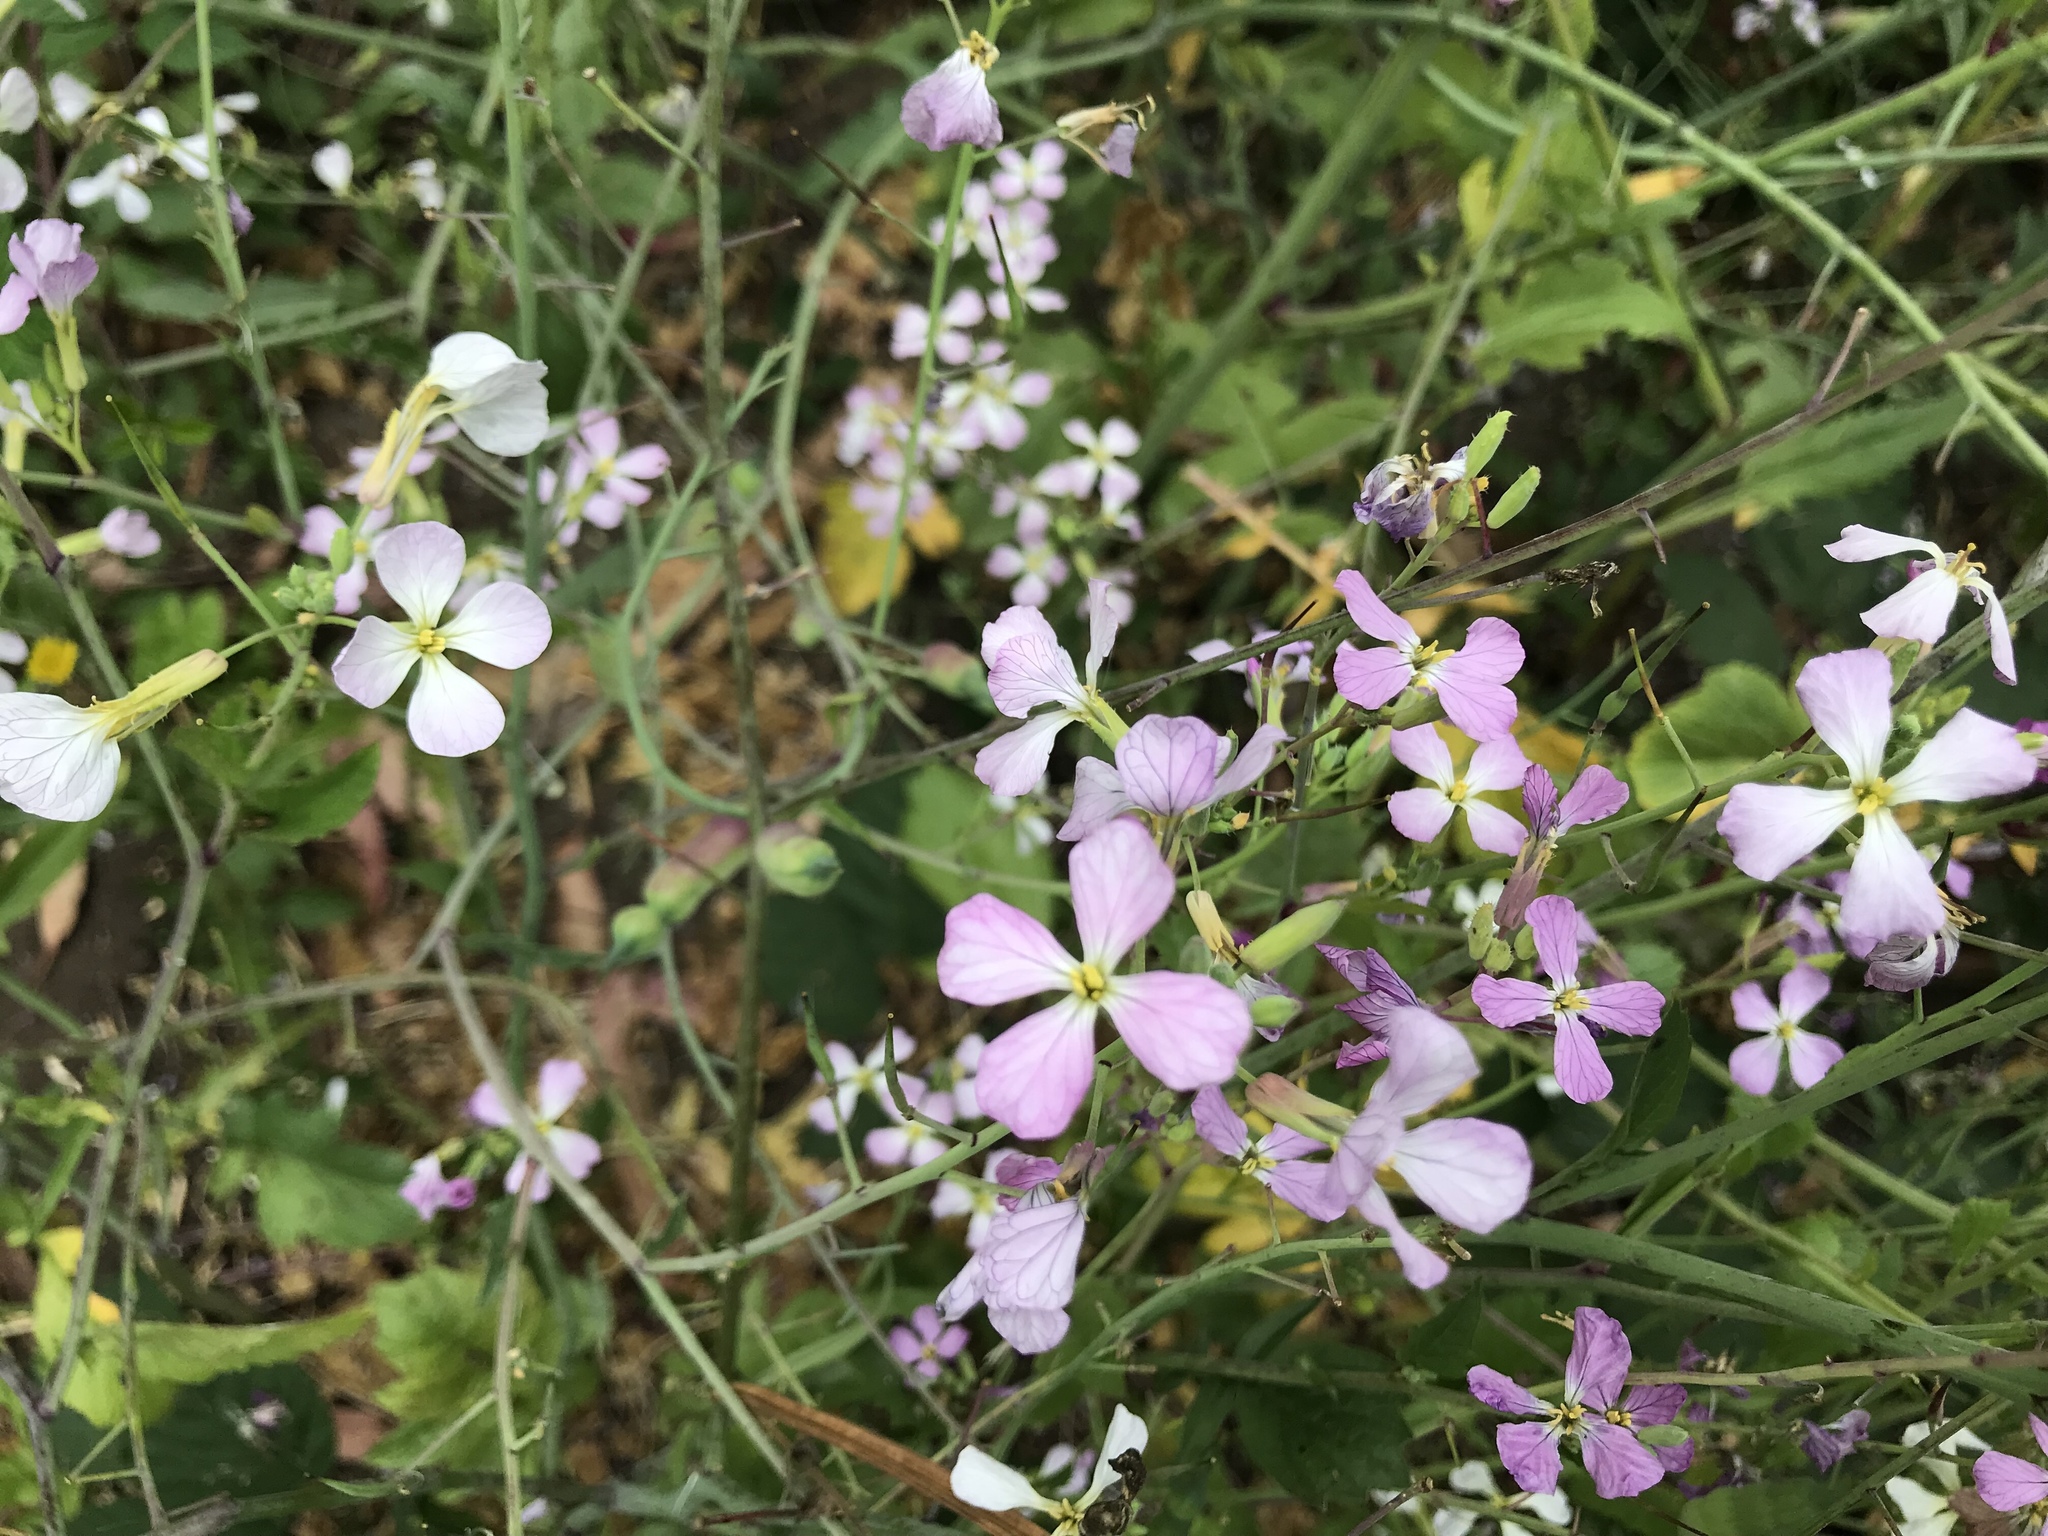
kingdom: Plantae
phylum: Tracheophyta
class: Magnoliopsida
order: Brassicales
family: Brassicaceae
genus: Raphanus
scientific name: Raphanus sativus
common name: Cultivated radish
